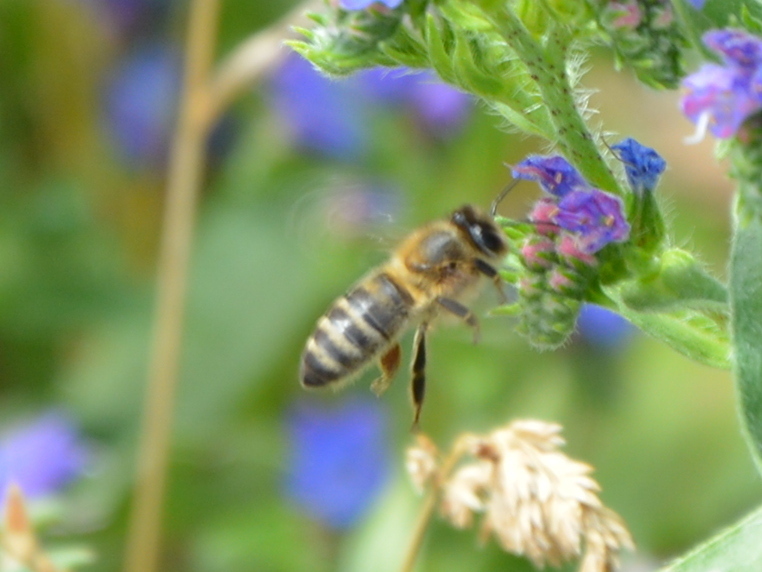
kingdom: Animalia
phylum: Arthropoda
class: Insecta
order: Hymenoptera
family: Apidae
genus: Apis
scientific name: Apis mellifera
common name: Honey bee
